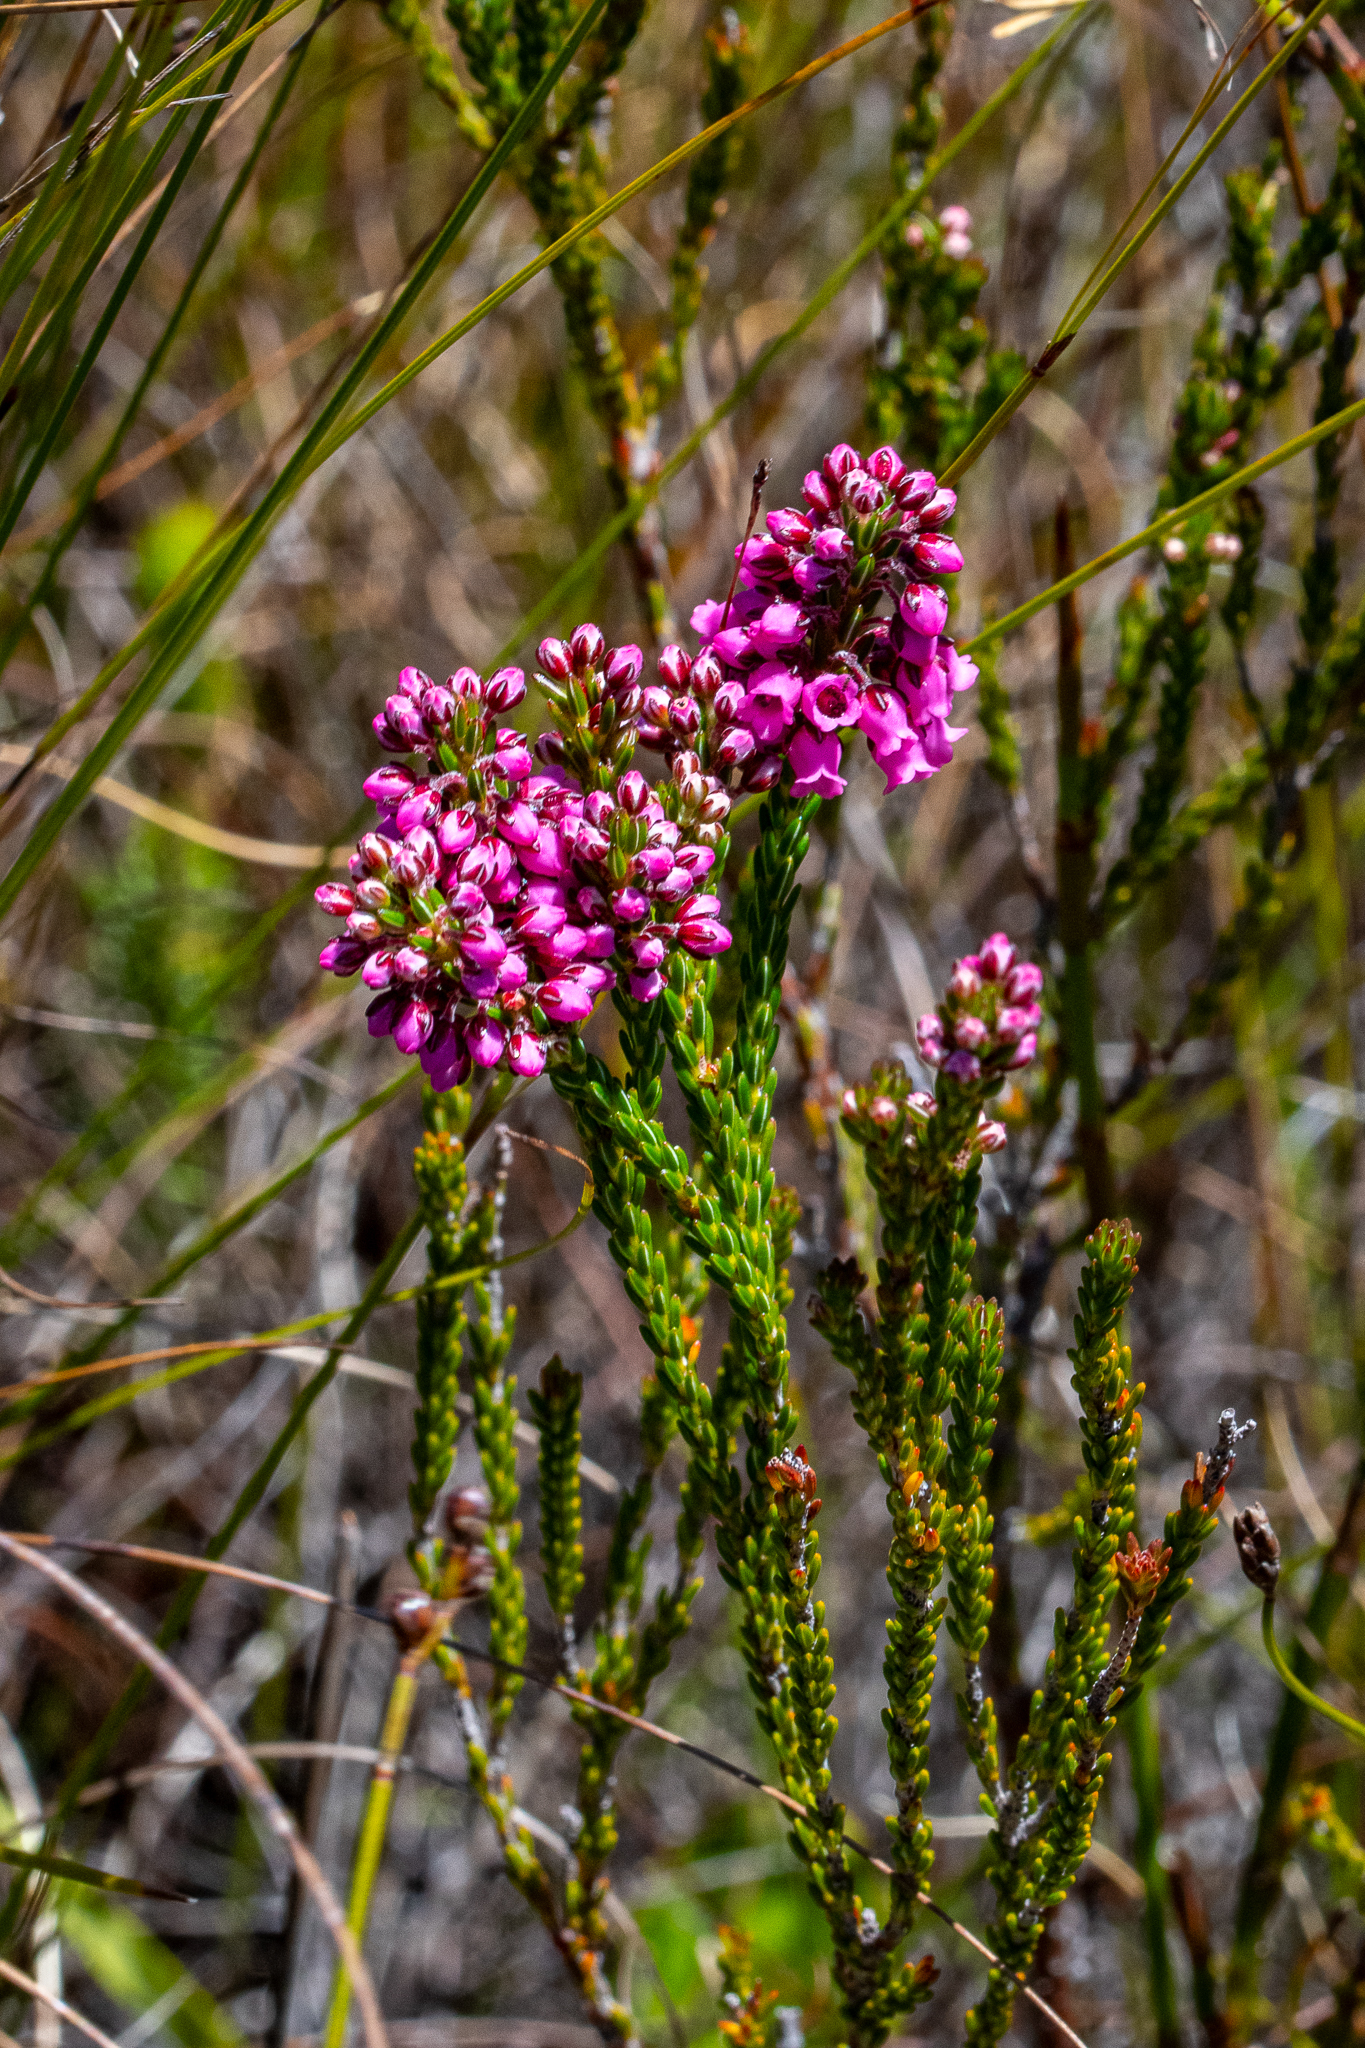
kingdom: Plantae
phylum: Tracheophyta
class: Magnoliopsida
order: Ericales
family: Ericaceae
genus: Erica
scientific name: Erica pulchella
